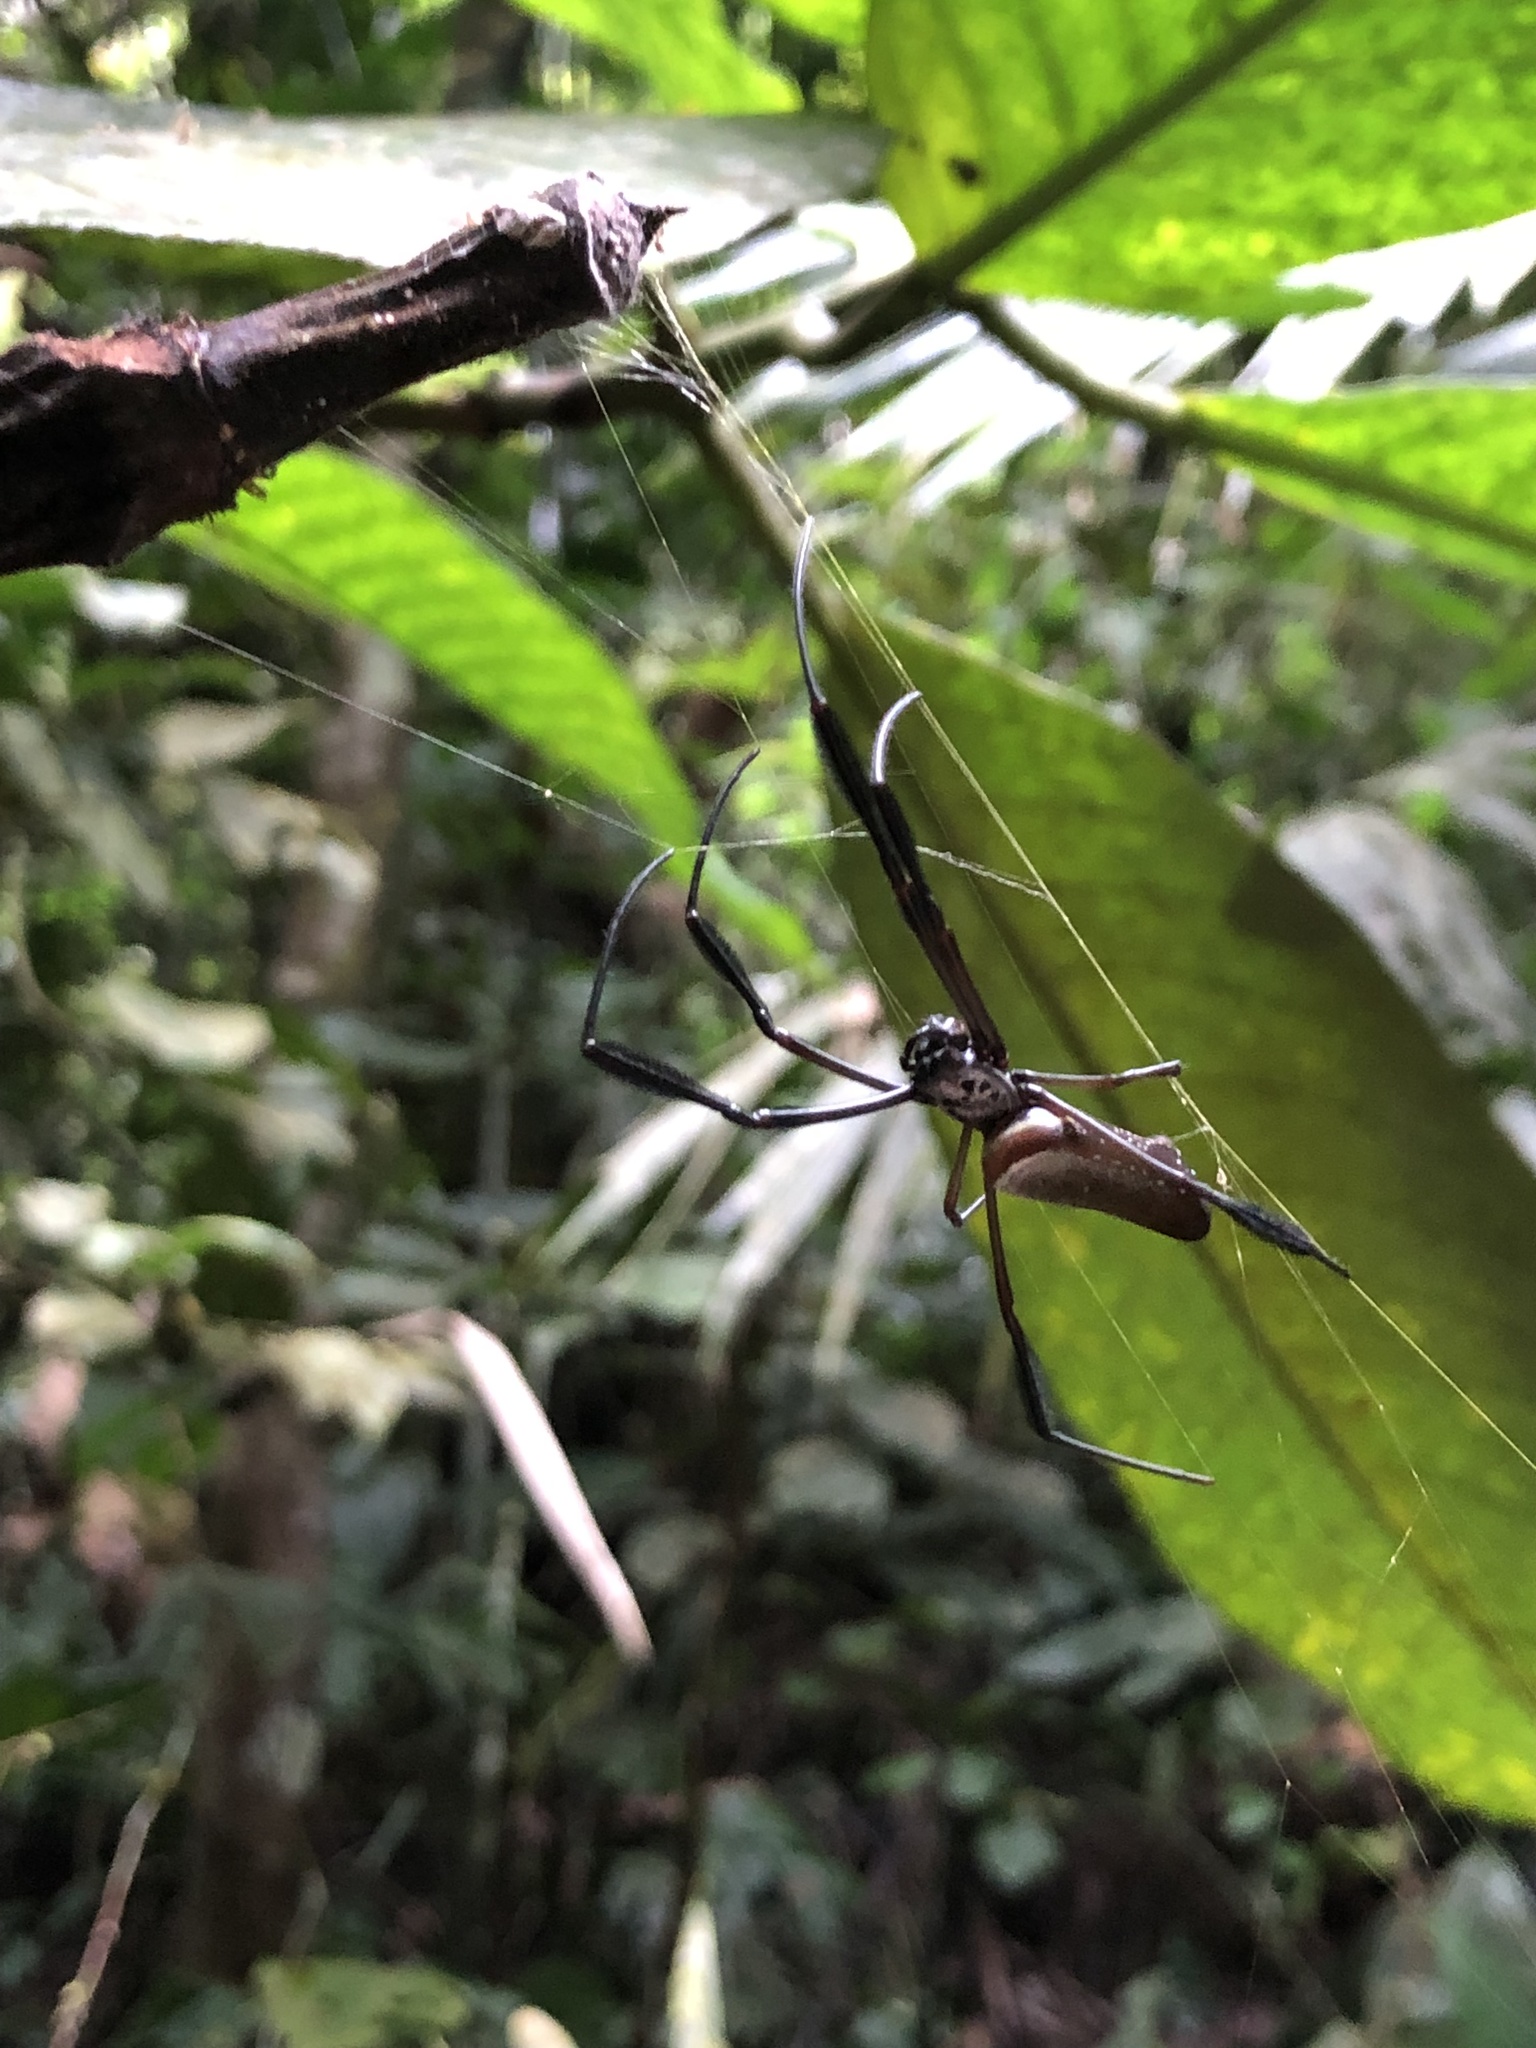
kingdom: Animalia
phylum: Arthropoda
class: Arachnida
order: Araneae
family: Araneidae
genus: Trichonephila
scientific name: Trichonephila clavipes
